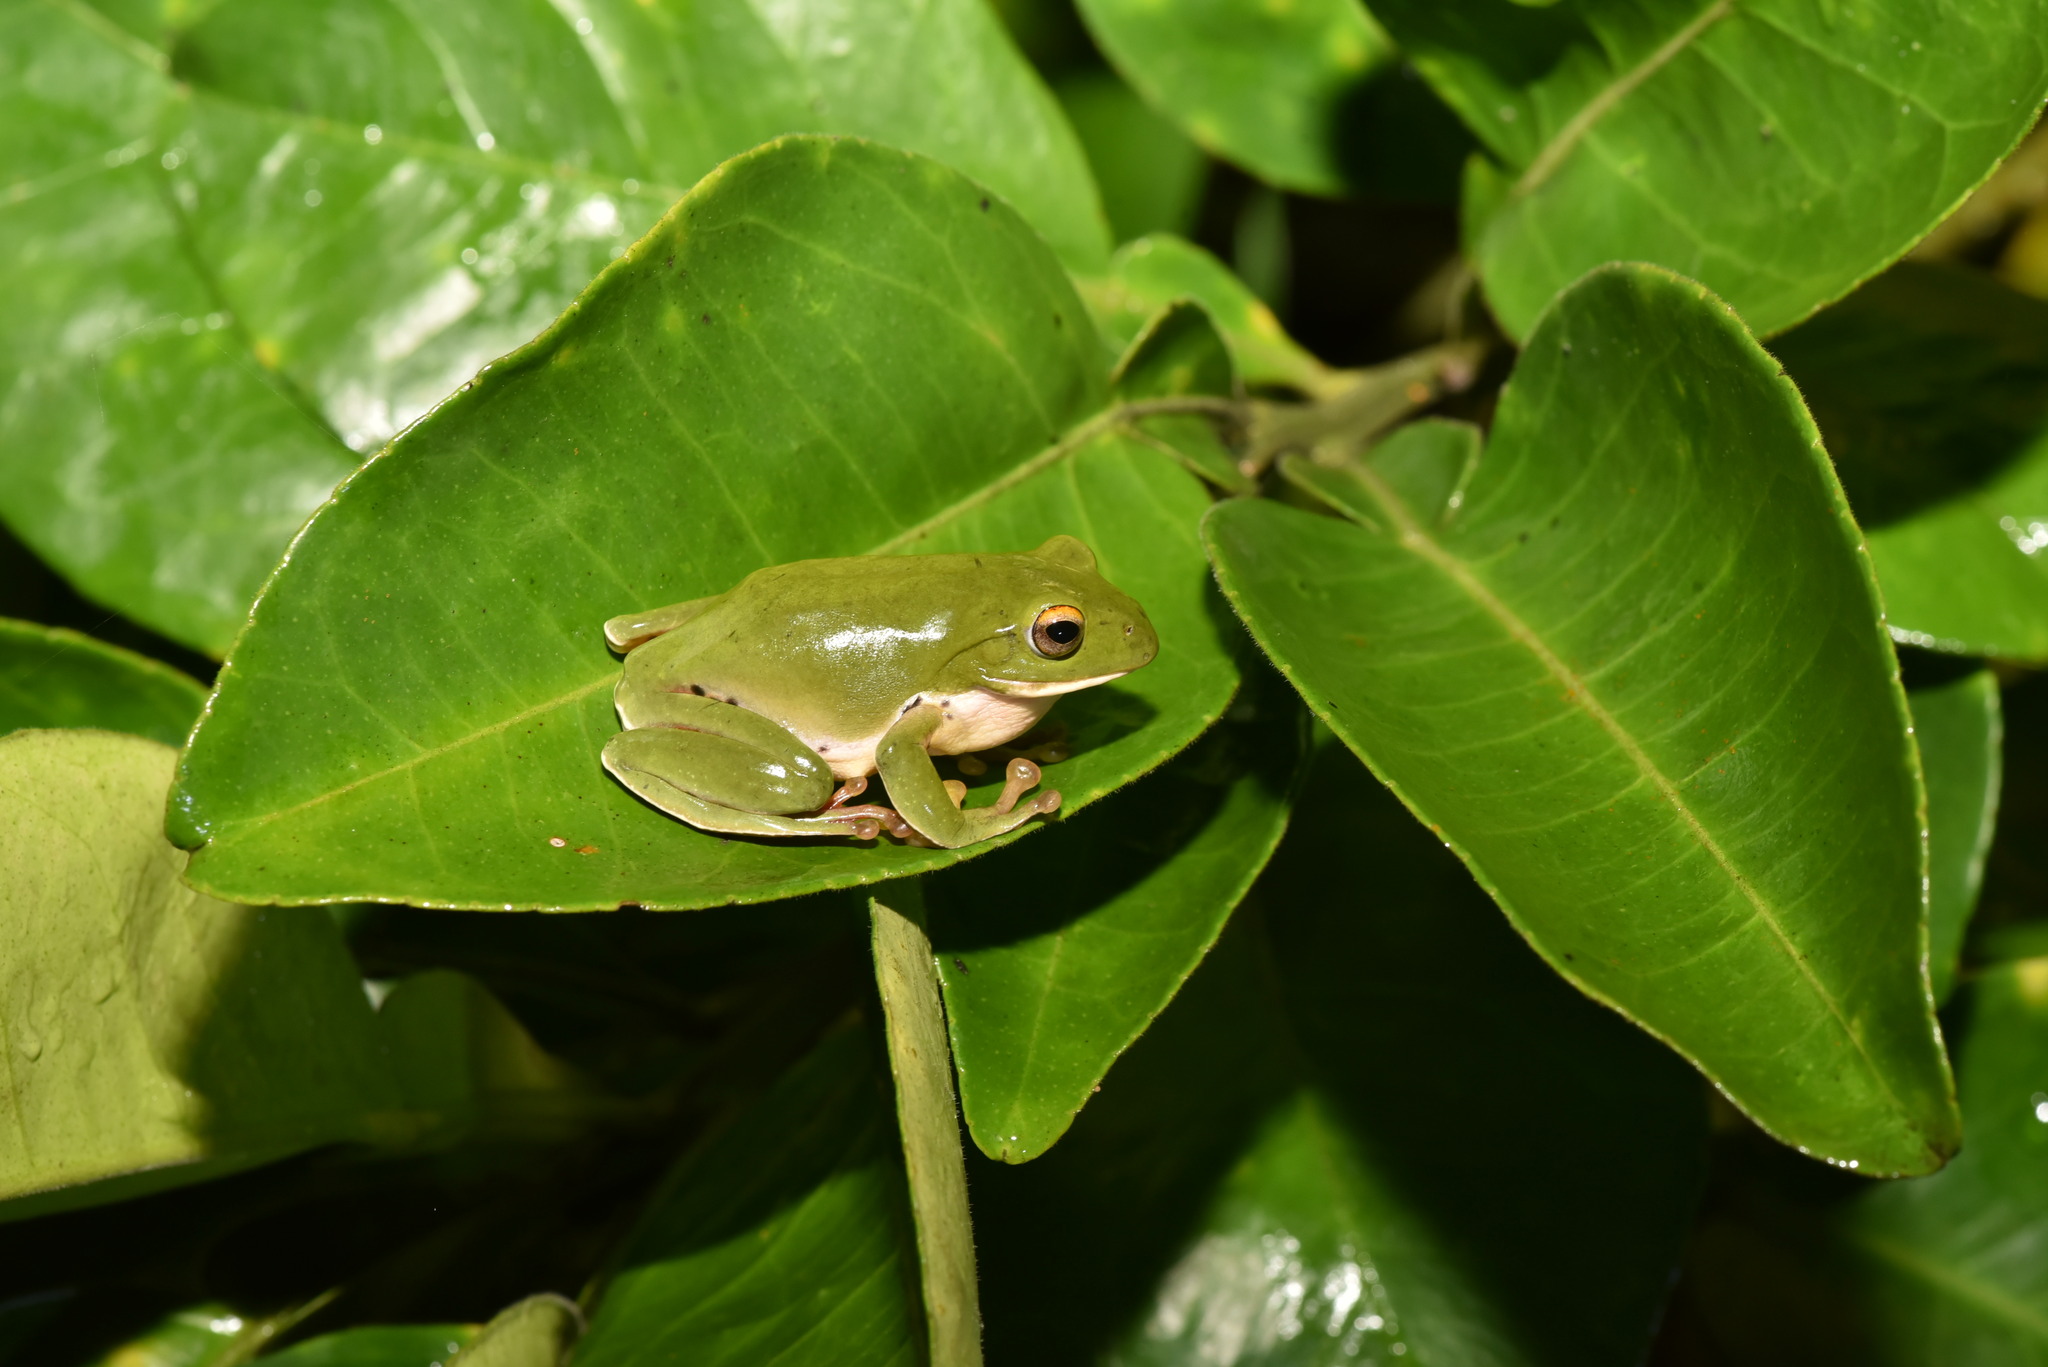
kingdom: Animalia
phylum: Chordata
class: Amphibia
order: Anura
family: Rhacophoridae
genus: Zhangixalus
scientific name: Zhangixalus moltrechti
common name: Moltrecht's treefrog
